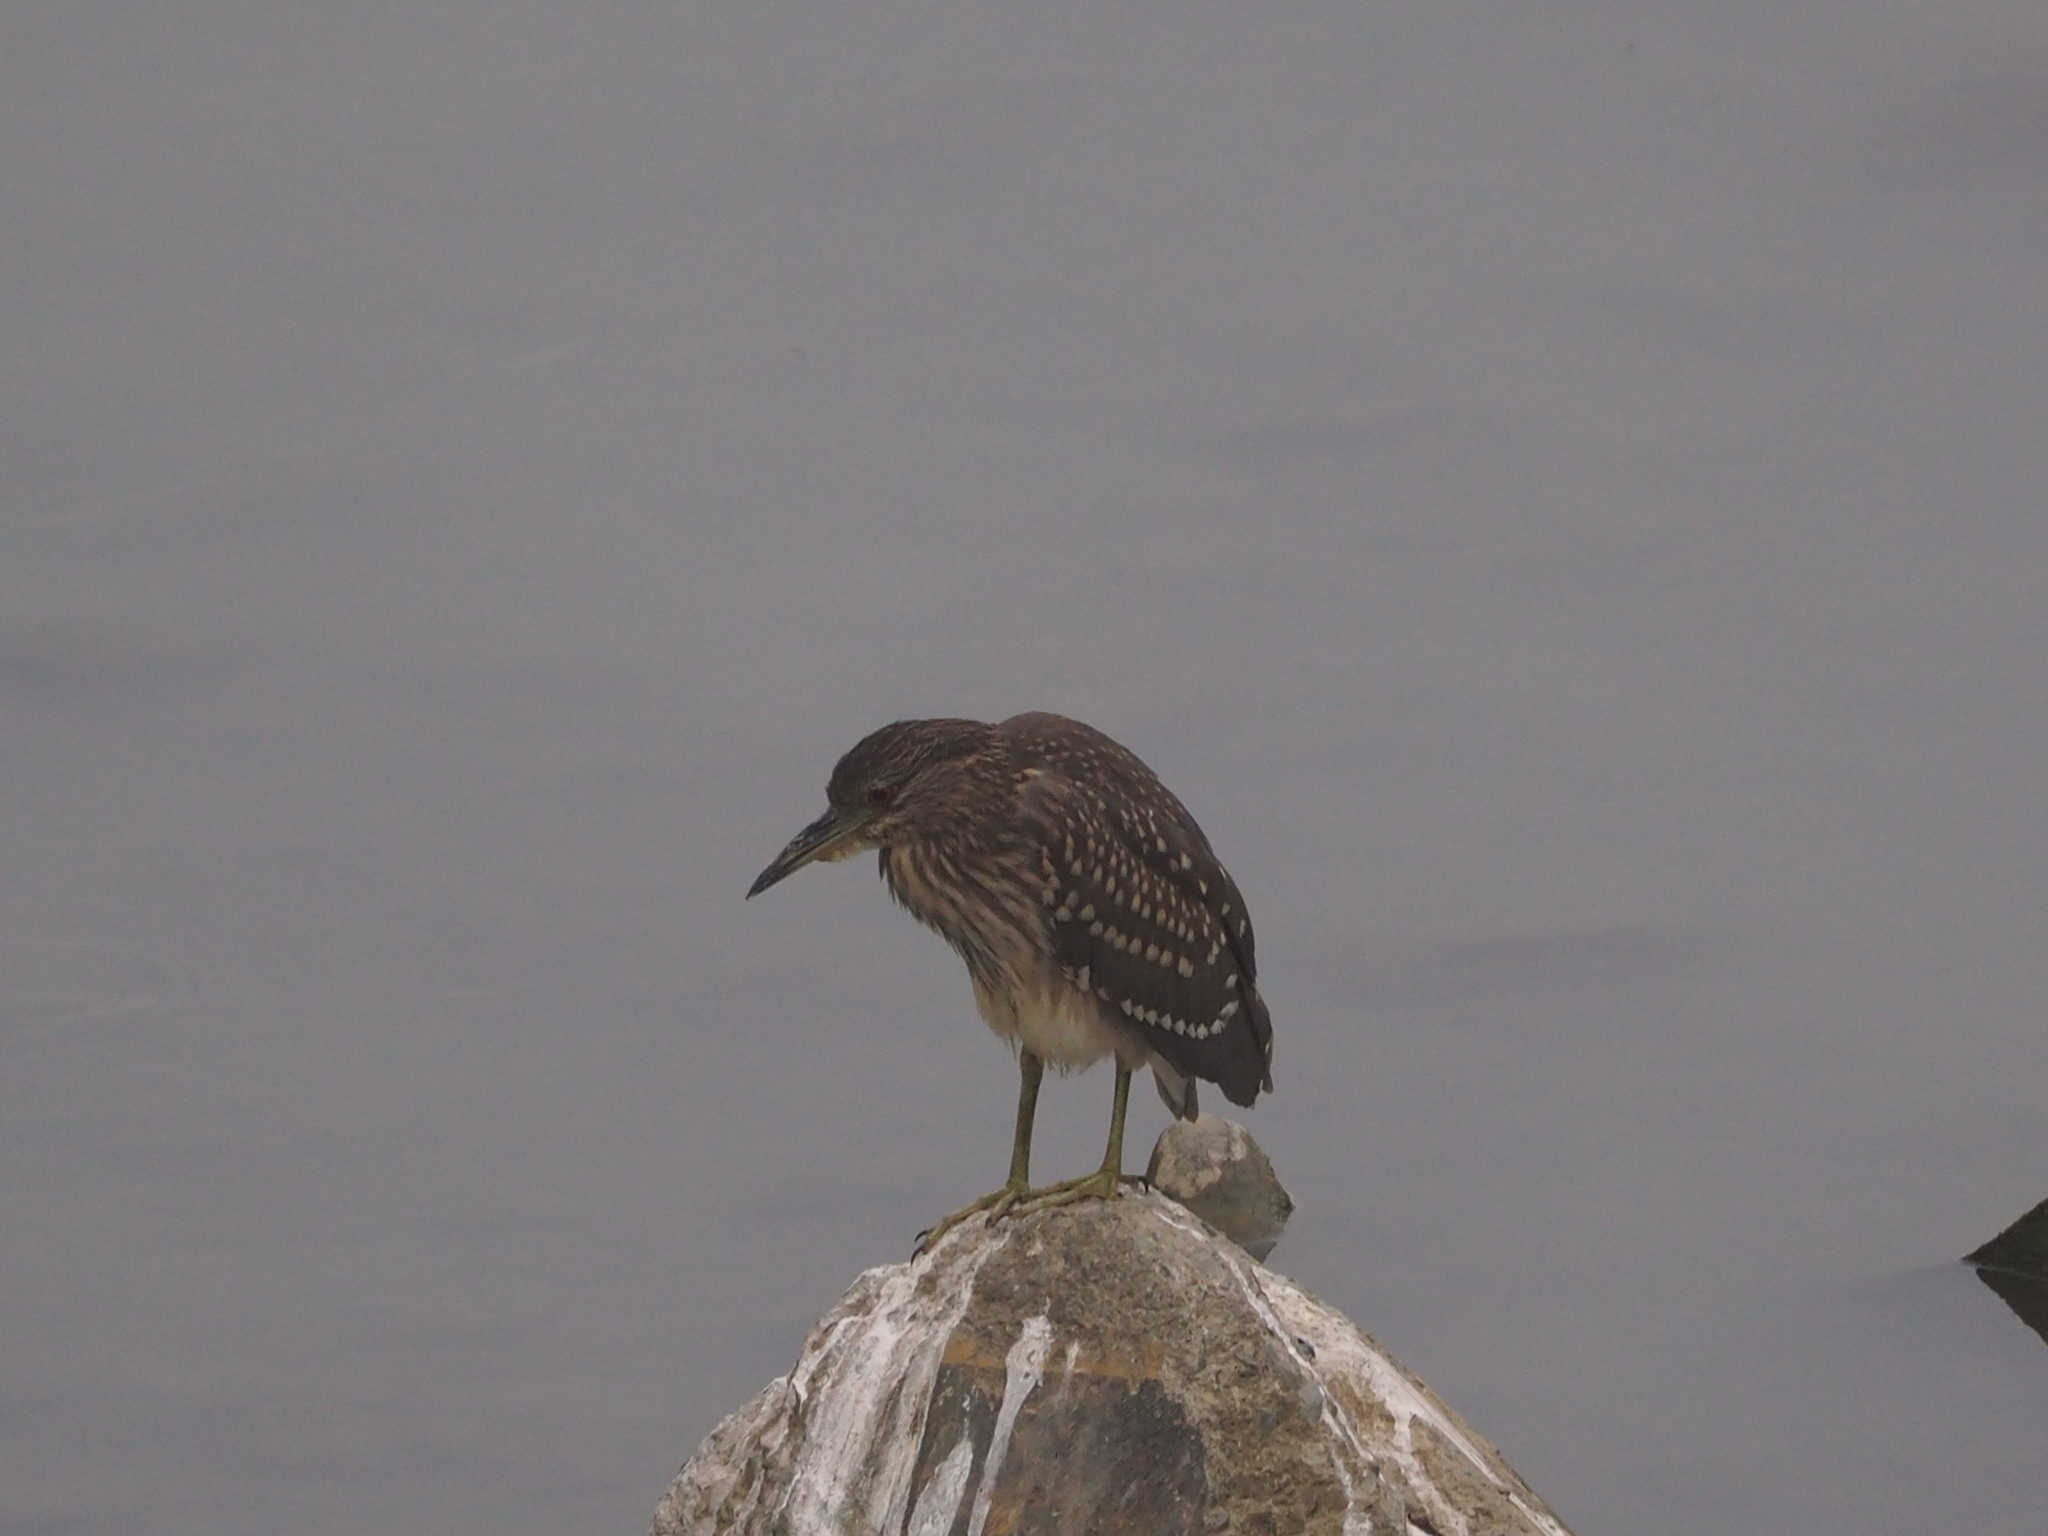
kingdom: Animalia
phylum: Chordata
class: Aves
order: Pelecaniformes
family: Ardeidae
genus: Nycticorax
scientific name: Nycticorax nycticorax
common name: Black-crowned night heron
